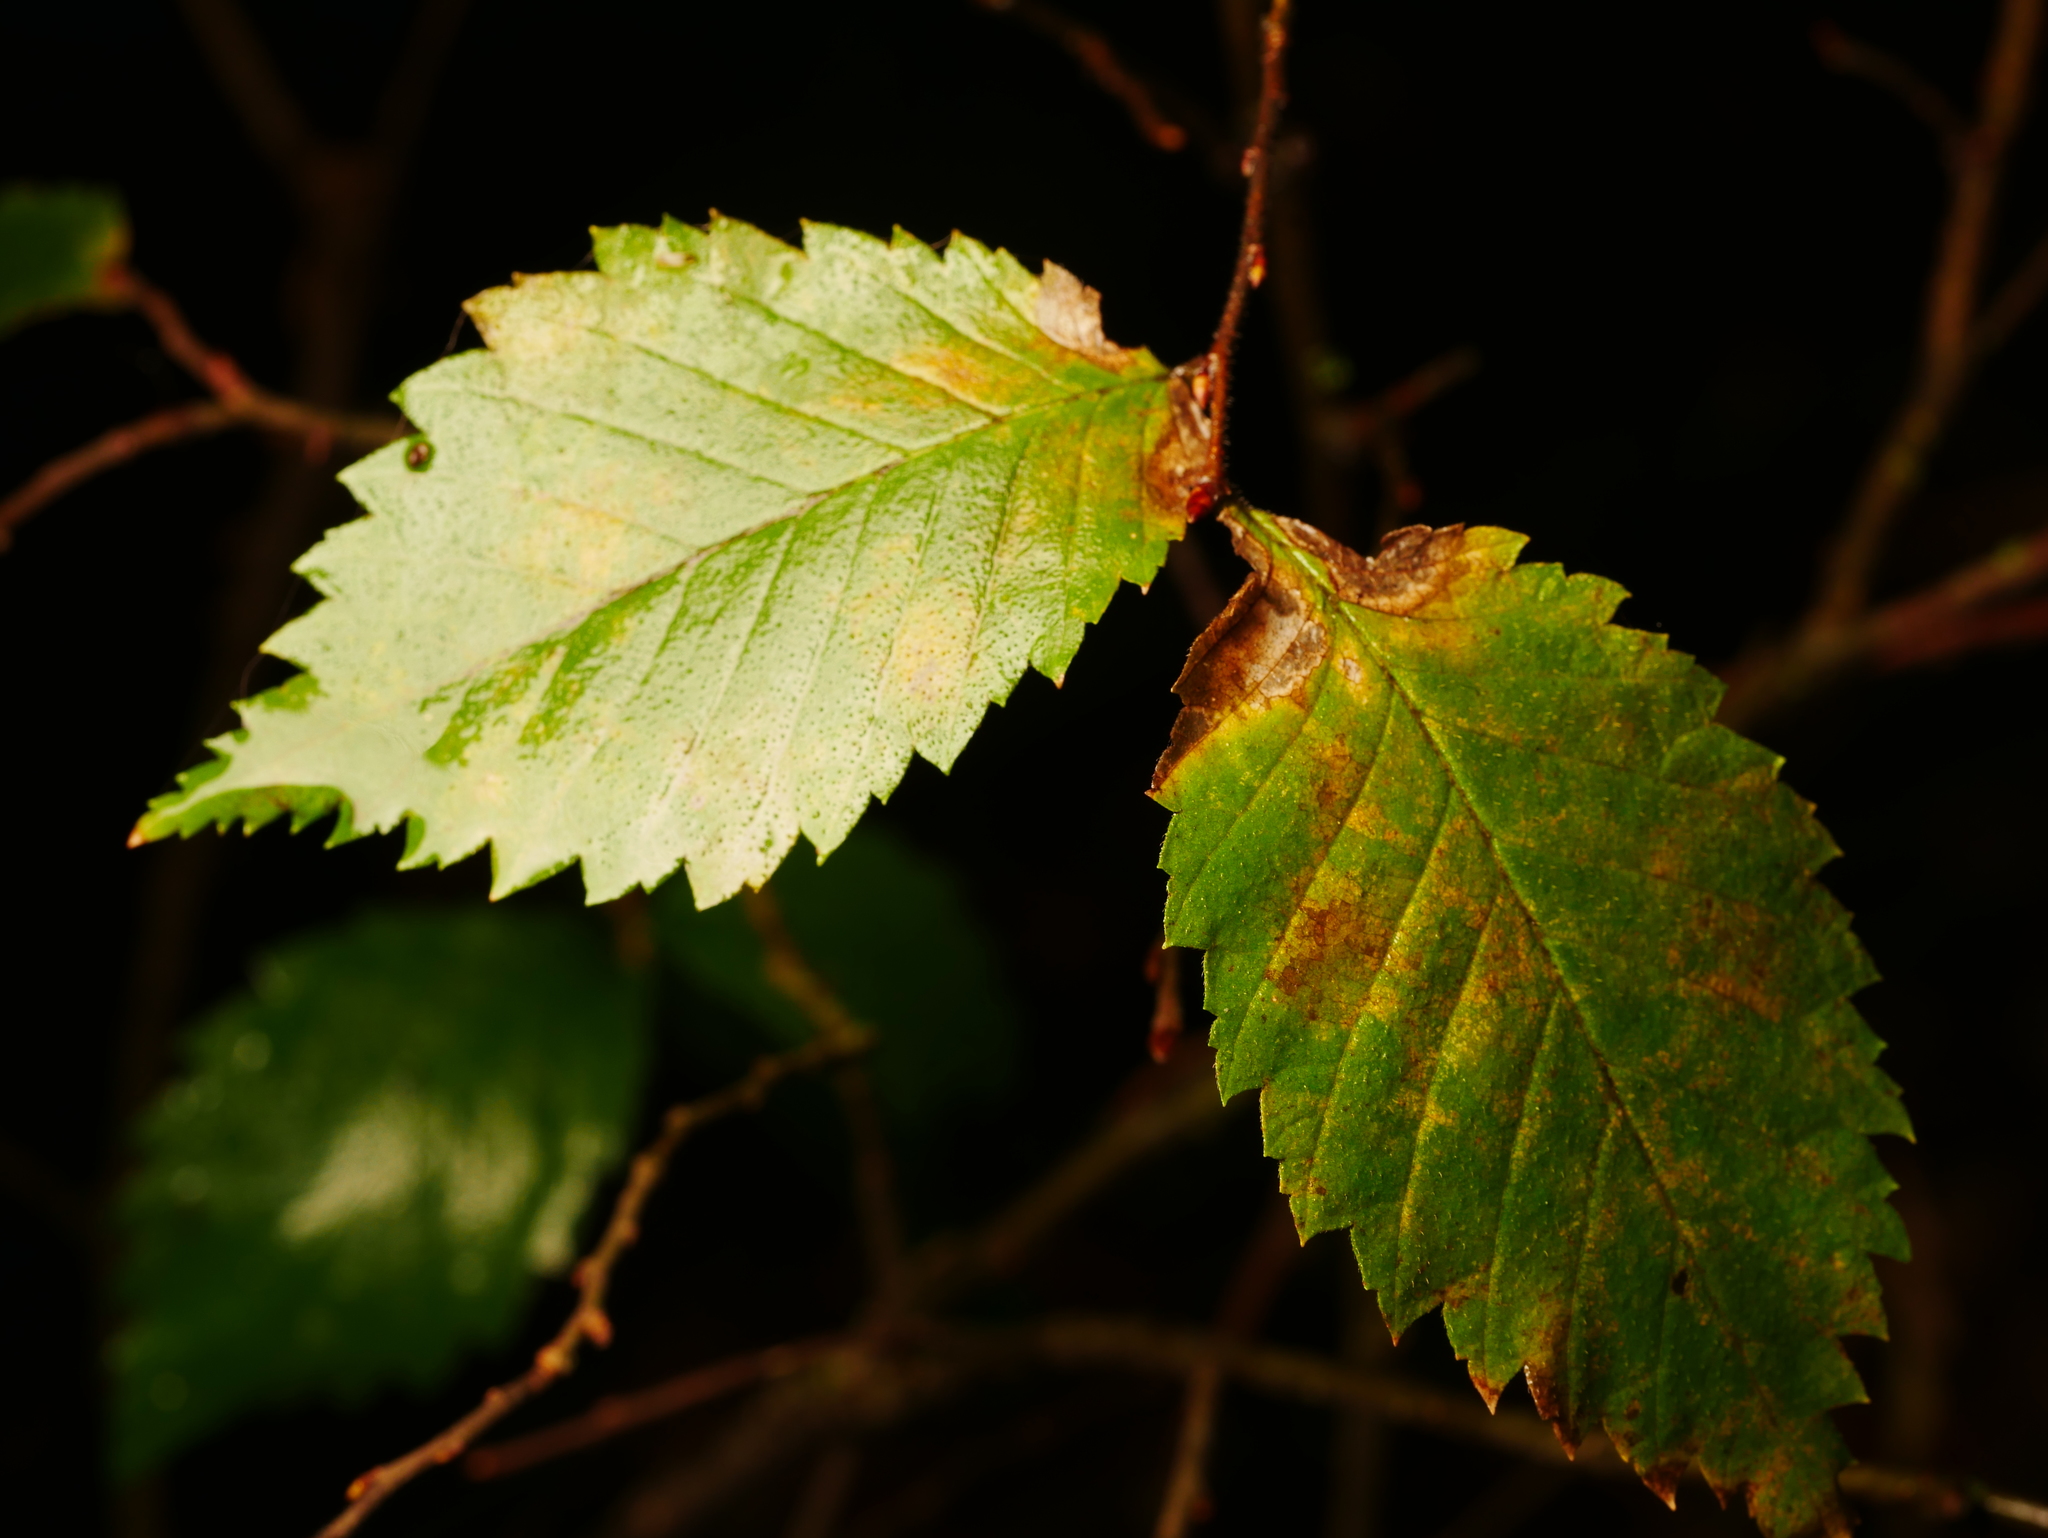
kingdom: Plantae
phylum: Tracheophyta
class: Magnoliopsida
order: Rosales
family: Ulmaceae
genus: Ulmus
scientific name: Ulmus minor
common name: Small-leaved elm
